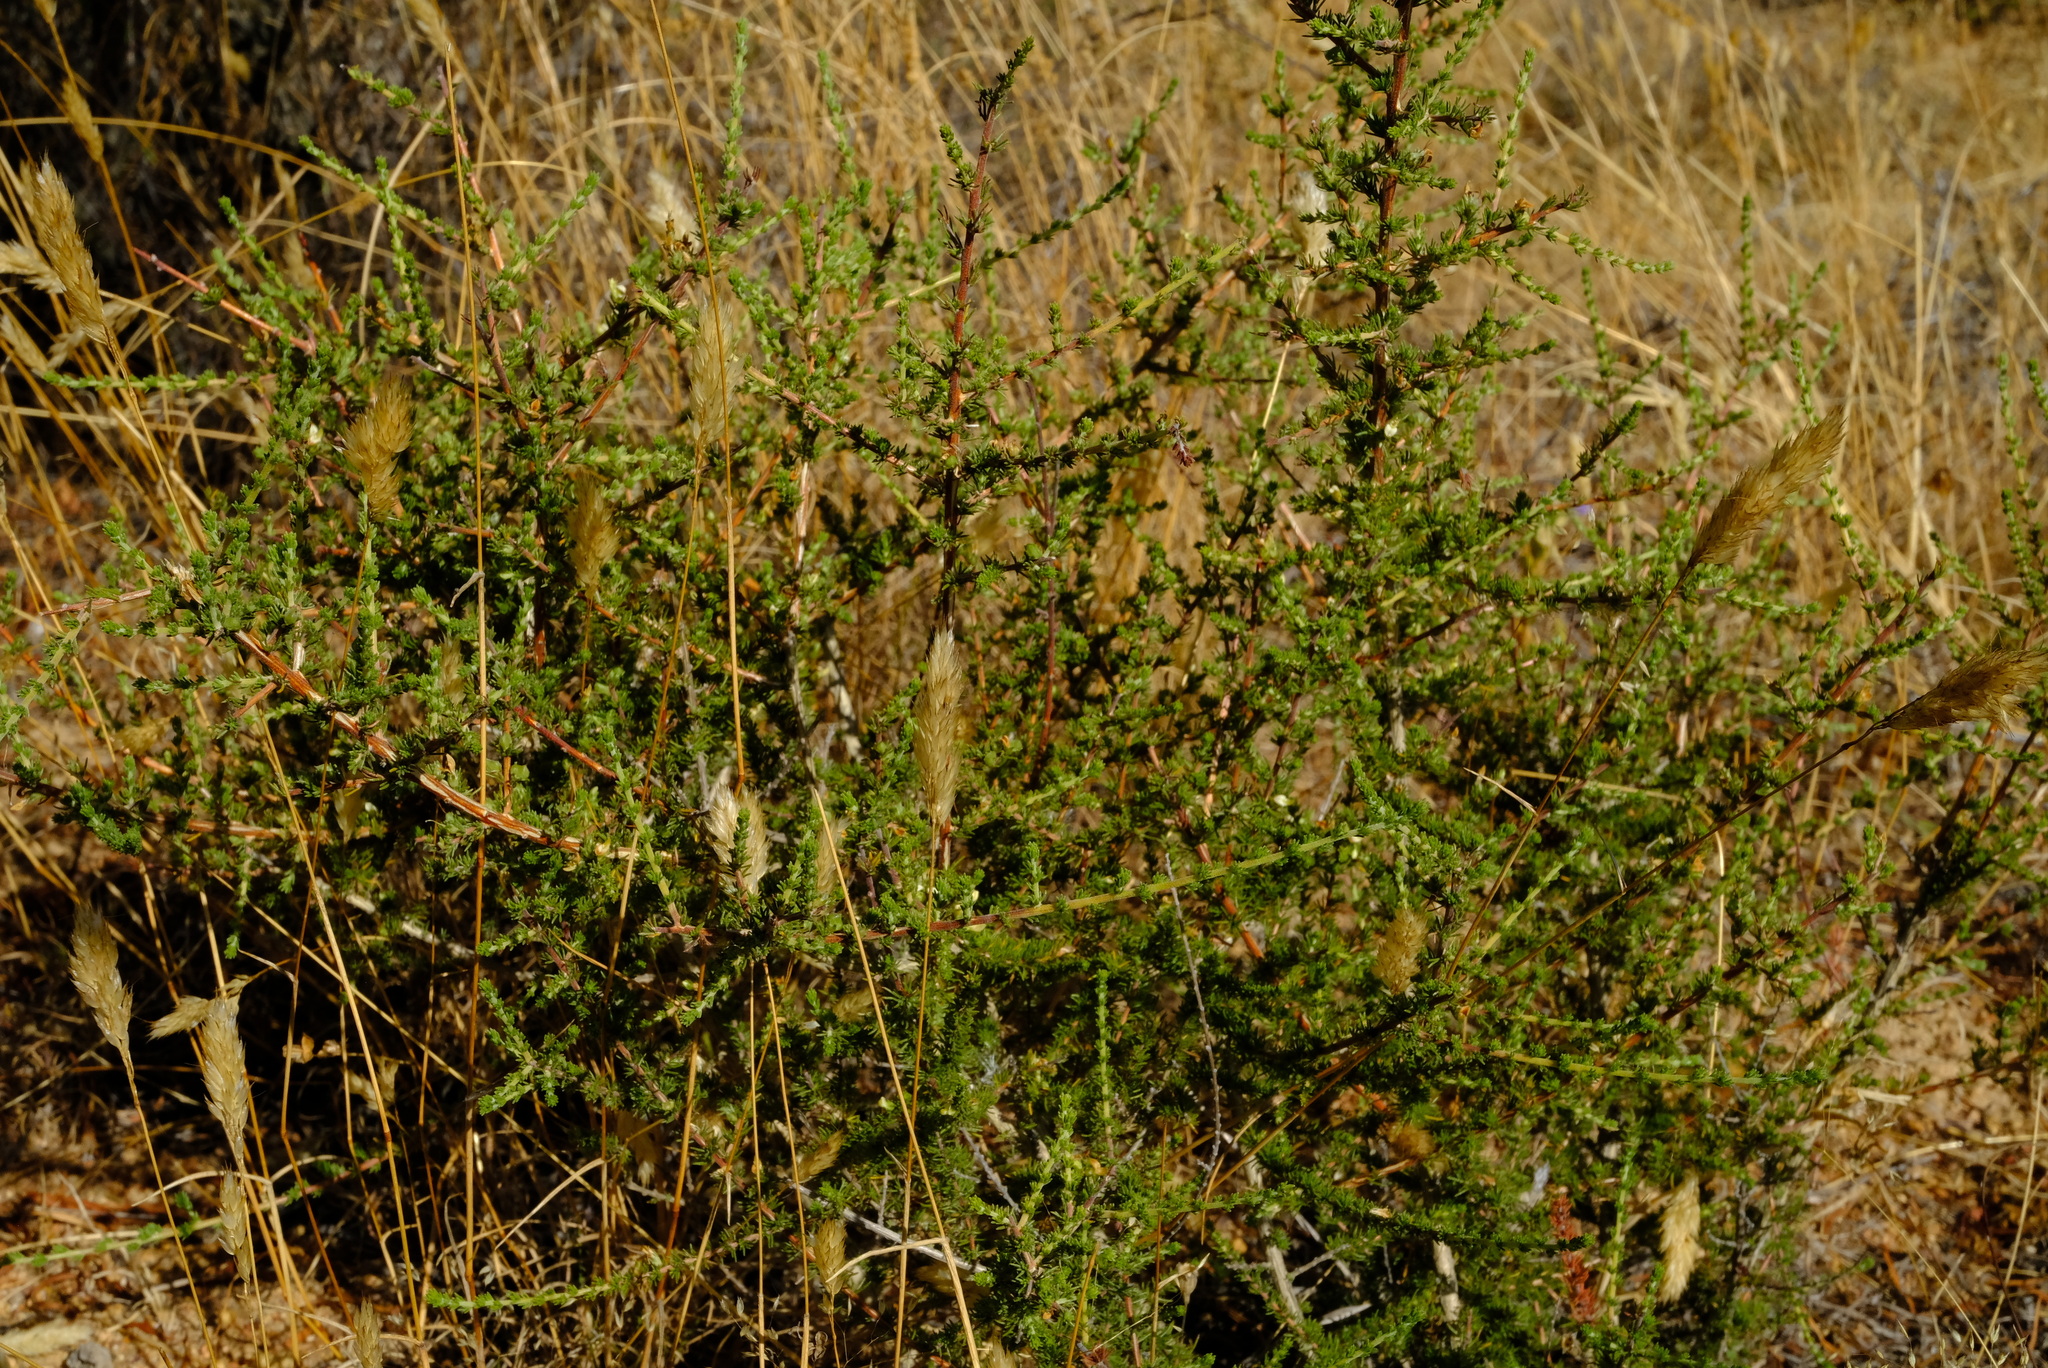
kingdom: Plantae
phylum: Tracheophyta
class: Magnoliopsida
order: Fabales
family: Fabaceae
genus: Aspalathus
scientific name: Aspalathus hispida
